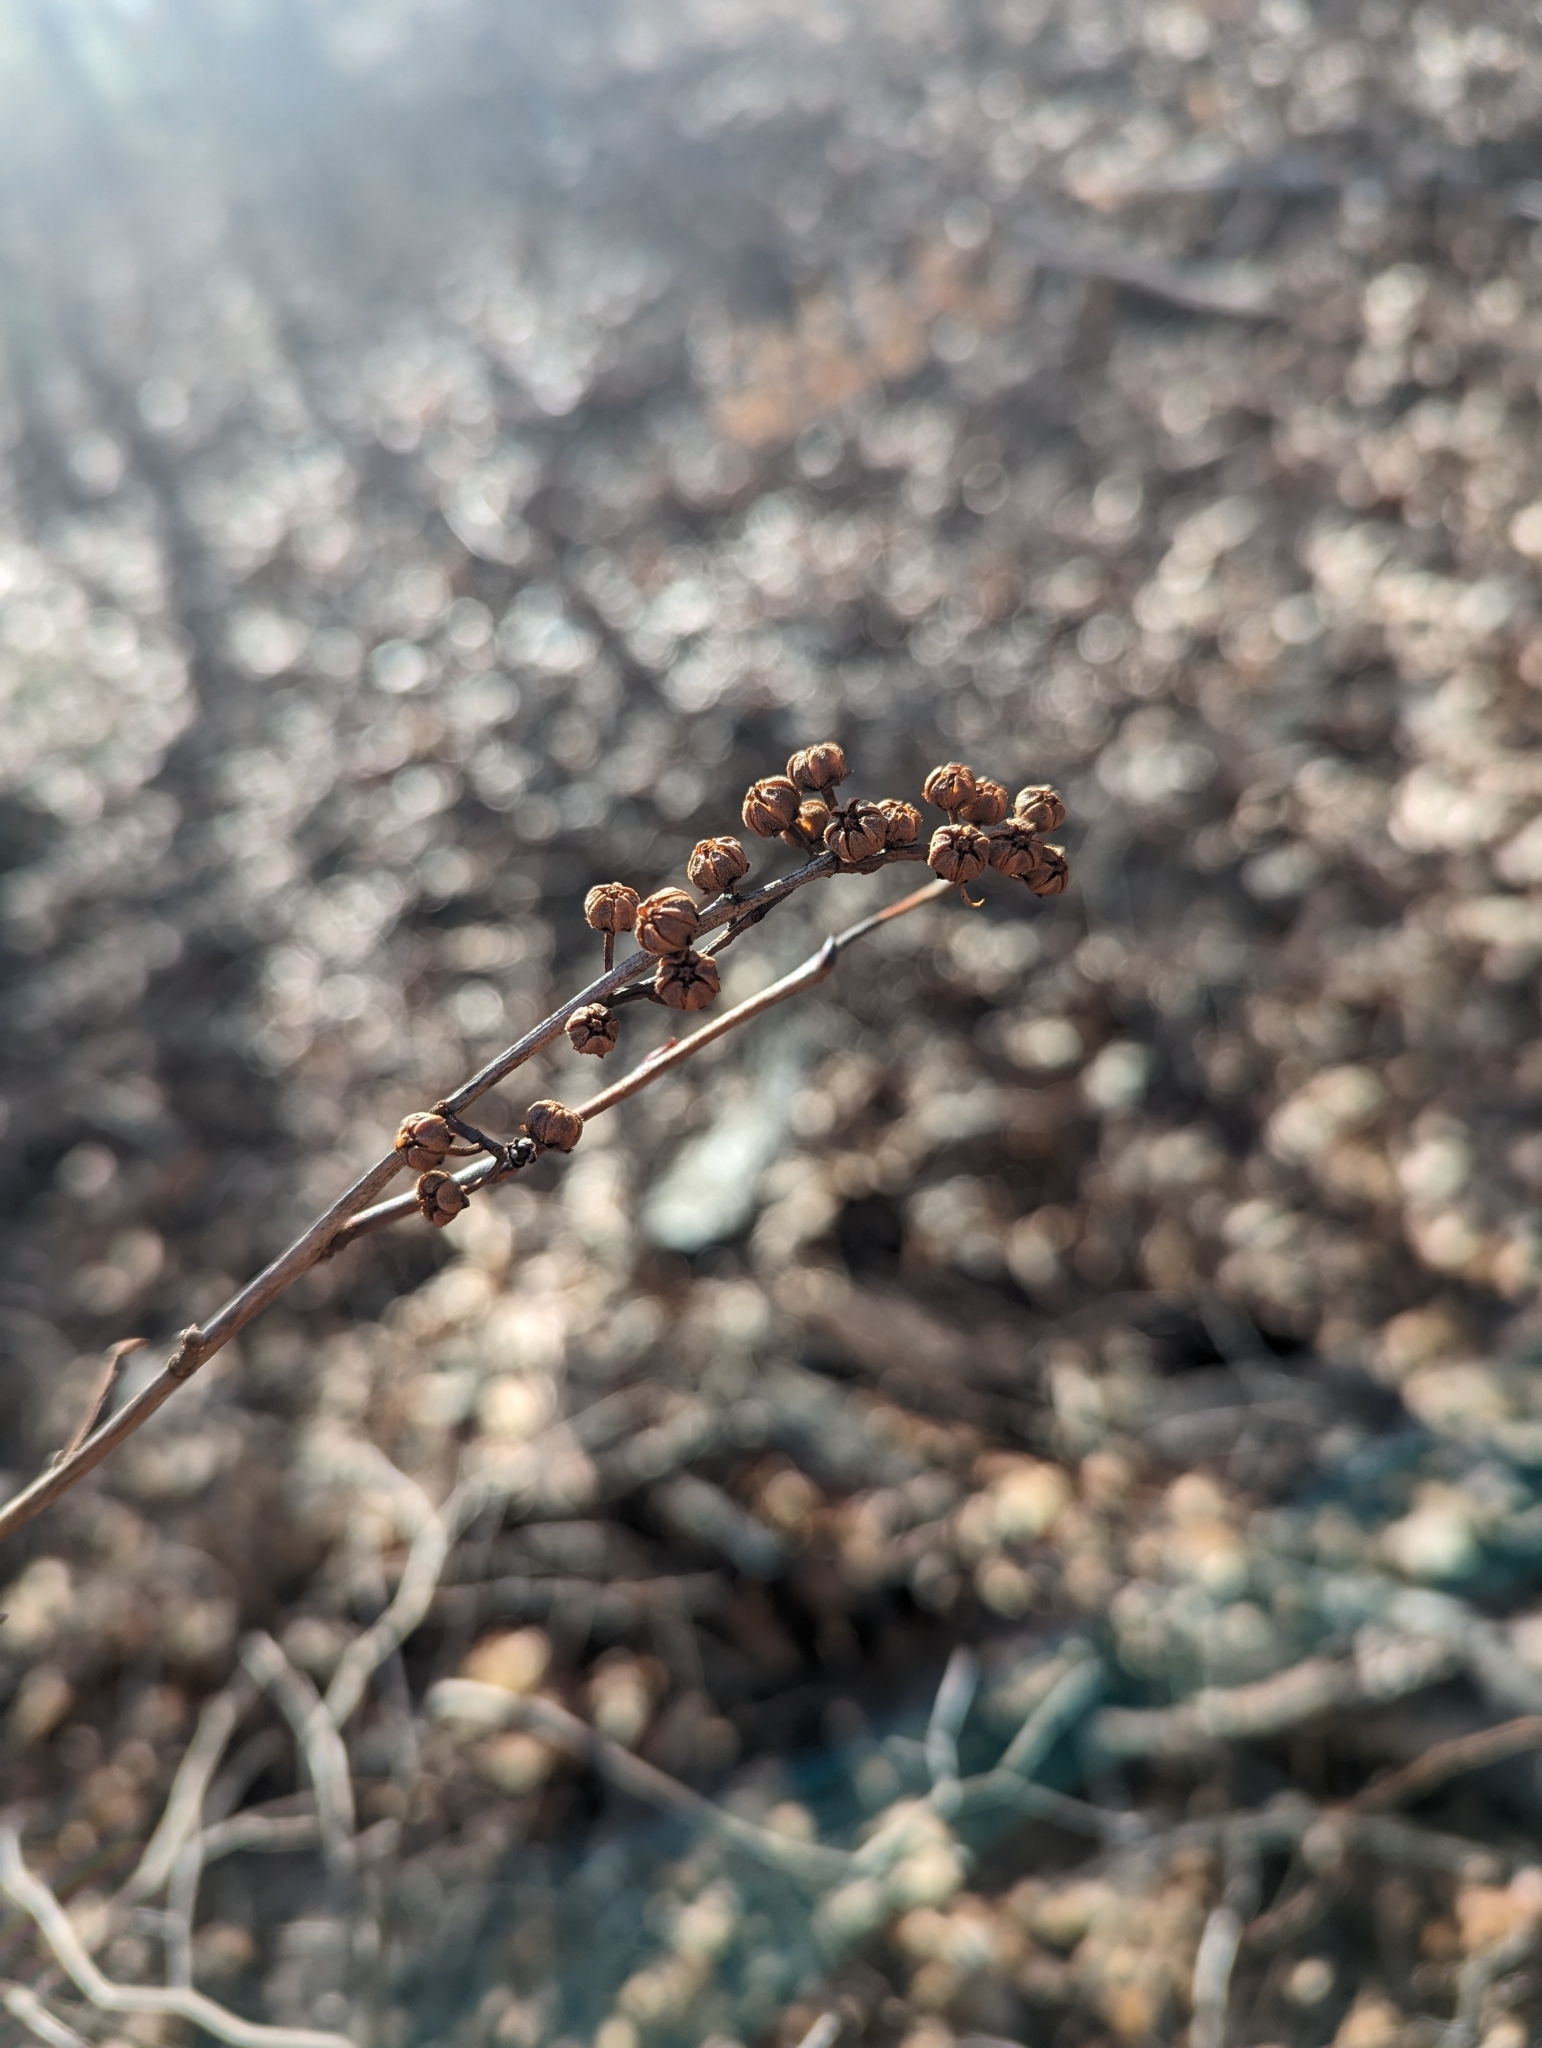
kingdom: Plantae
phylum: Tracheophyta
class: Magnoliopsida
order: Ericales
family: Ericaceae
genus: Lyonia
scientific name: Lyonia ligustrina
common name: Maleberry
